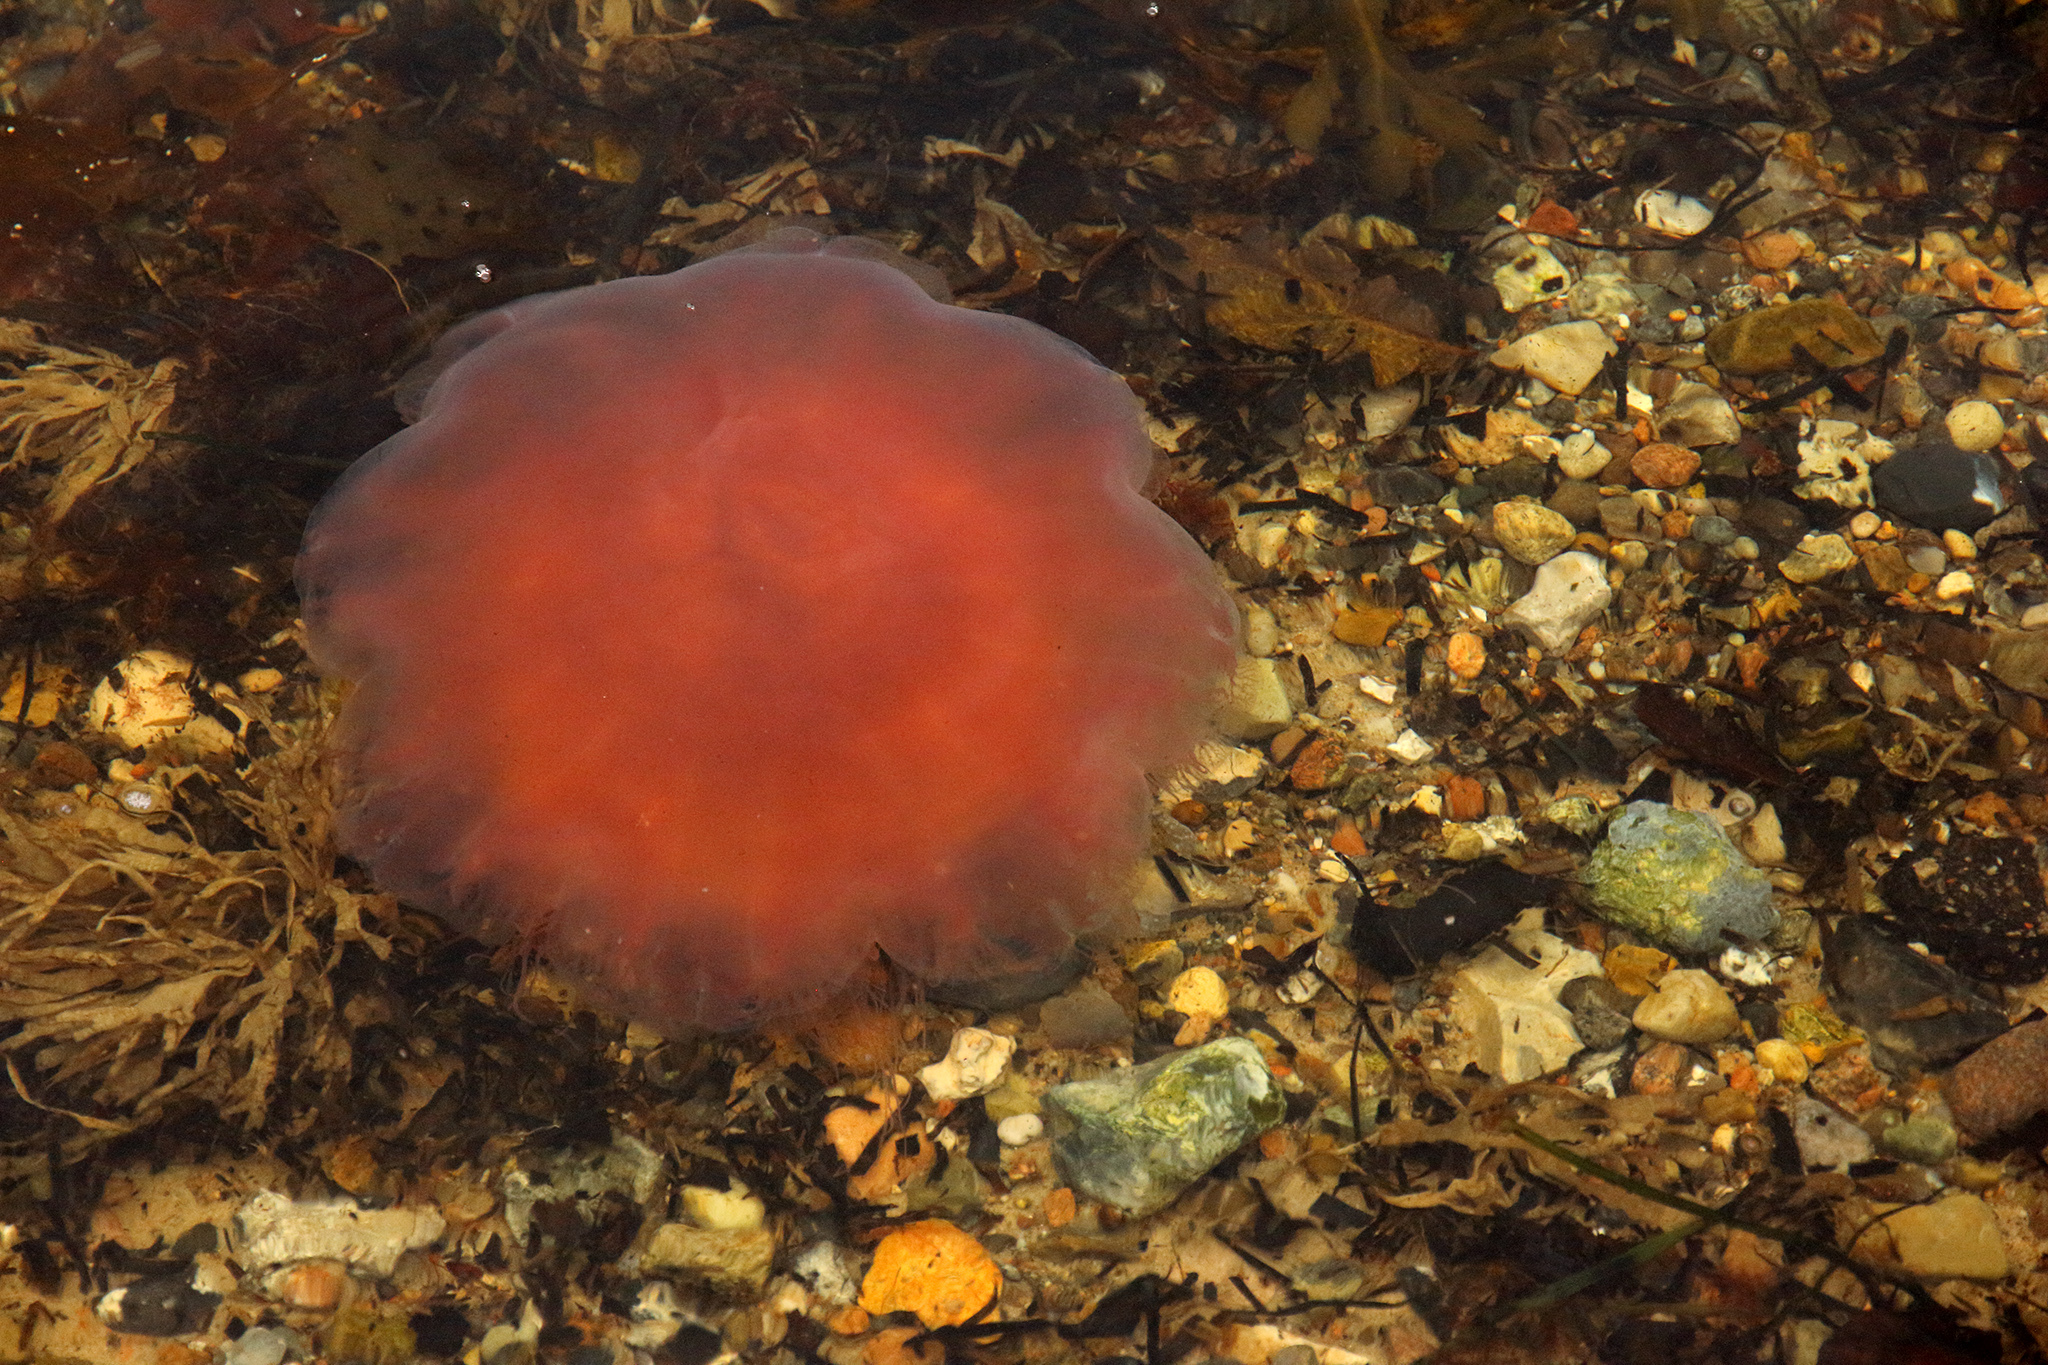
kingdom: Animalia
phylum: Cnidaria
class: Scyphozoa
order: Semaeostomeae
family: Cyaneidae
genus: Cyanea
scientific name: Cyanea capillata
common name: Lion's mane jellyfish
